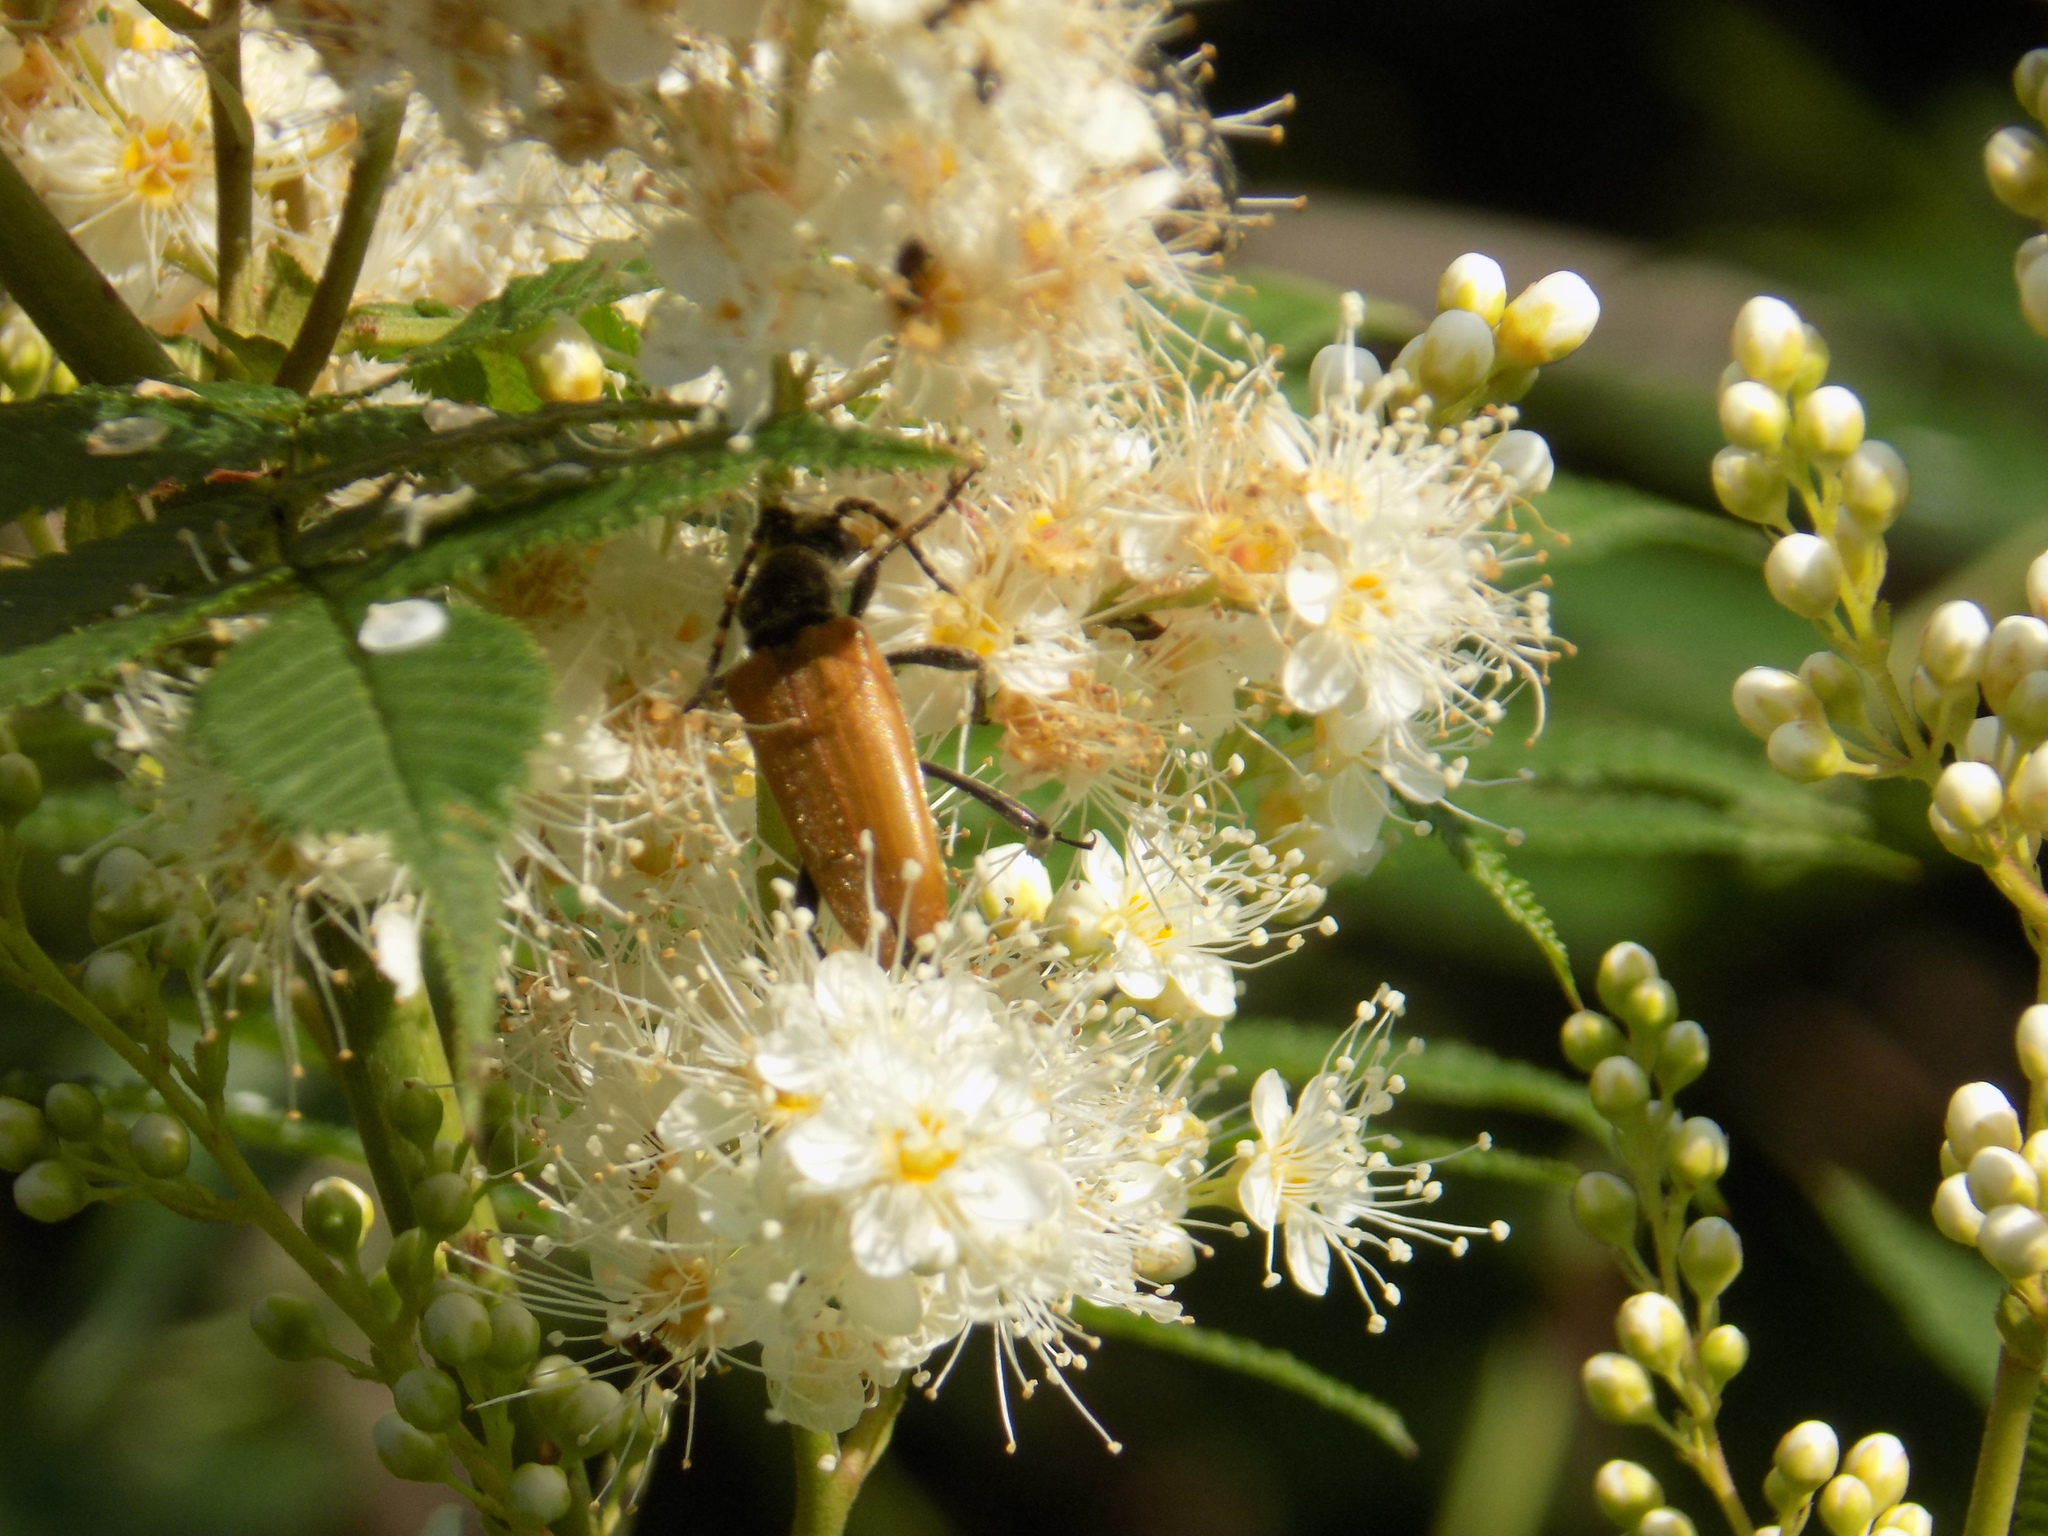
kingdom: Animalia
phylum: Arthropoda
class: Insecta
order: Coleoptera
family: Cerambycidae
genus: Stictoleptura
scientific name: Stictoleptura variicornis
